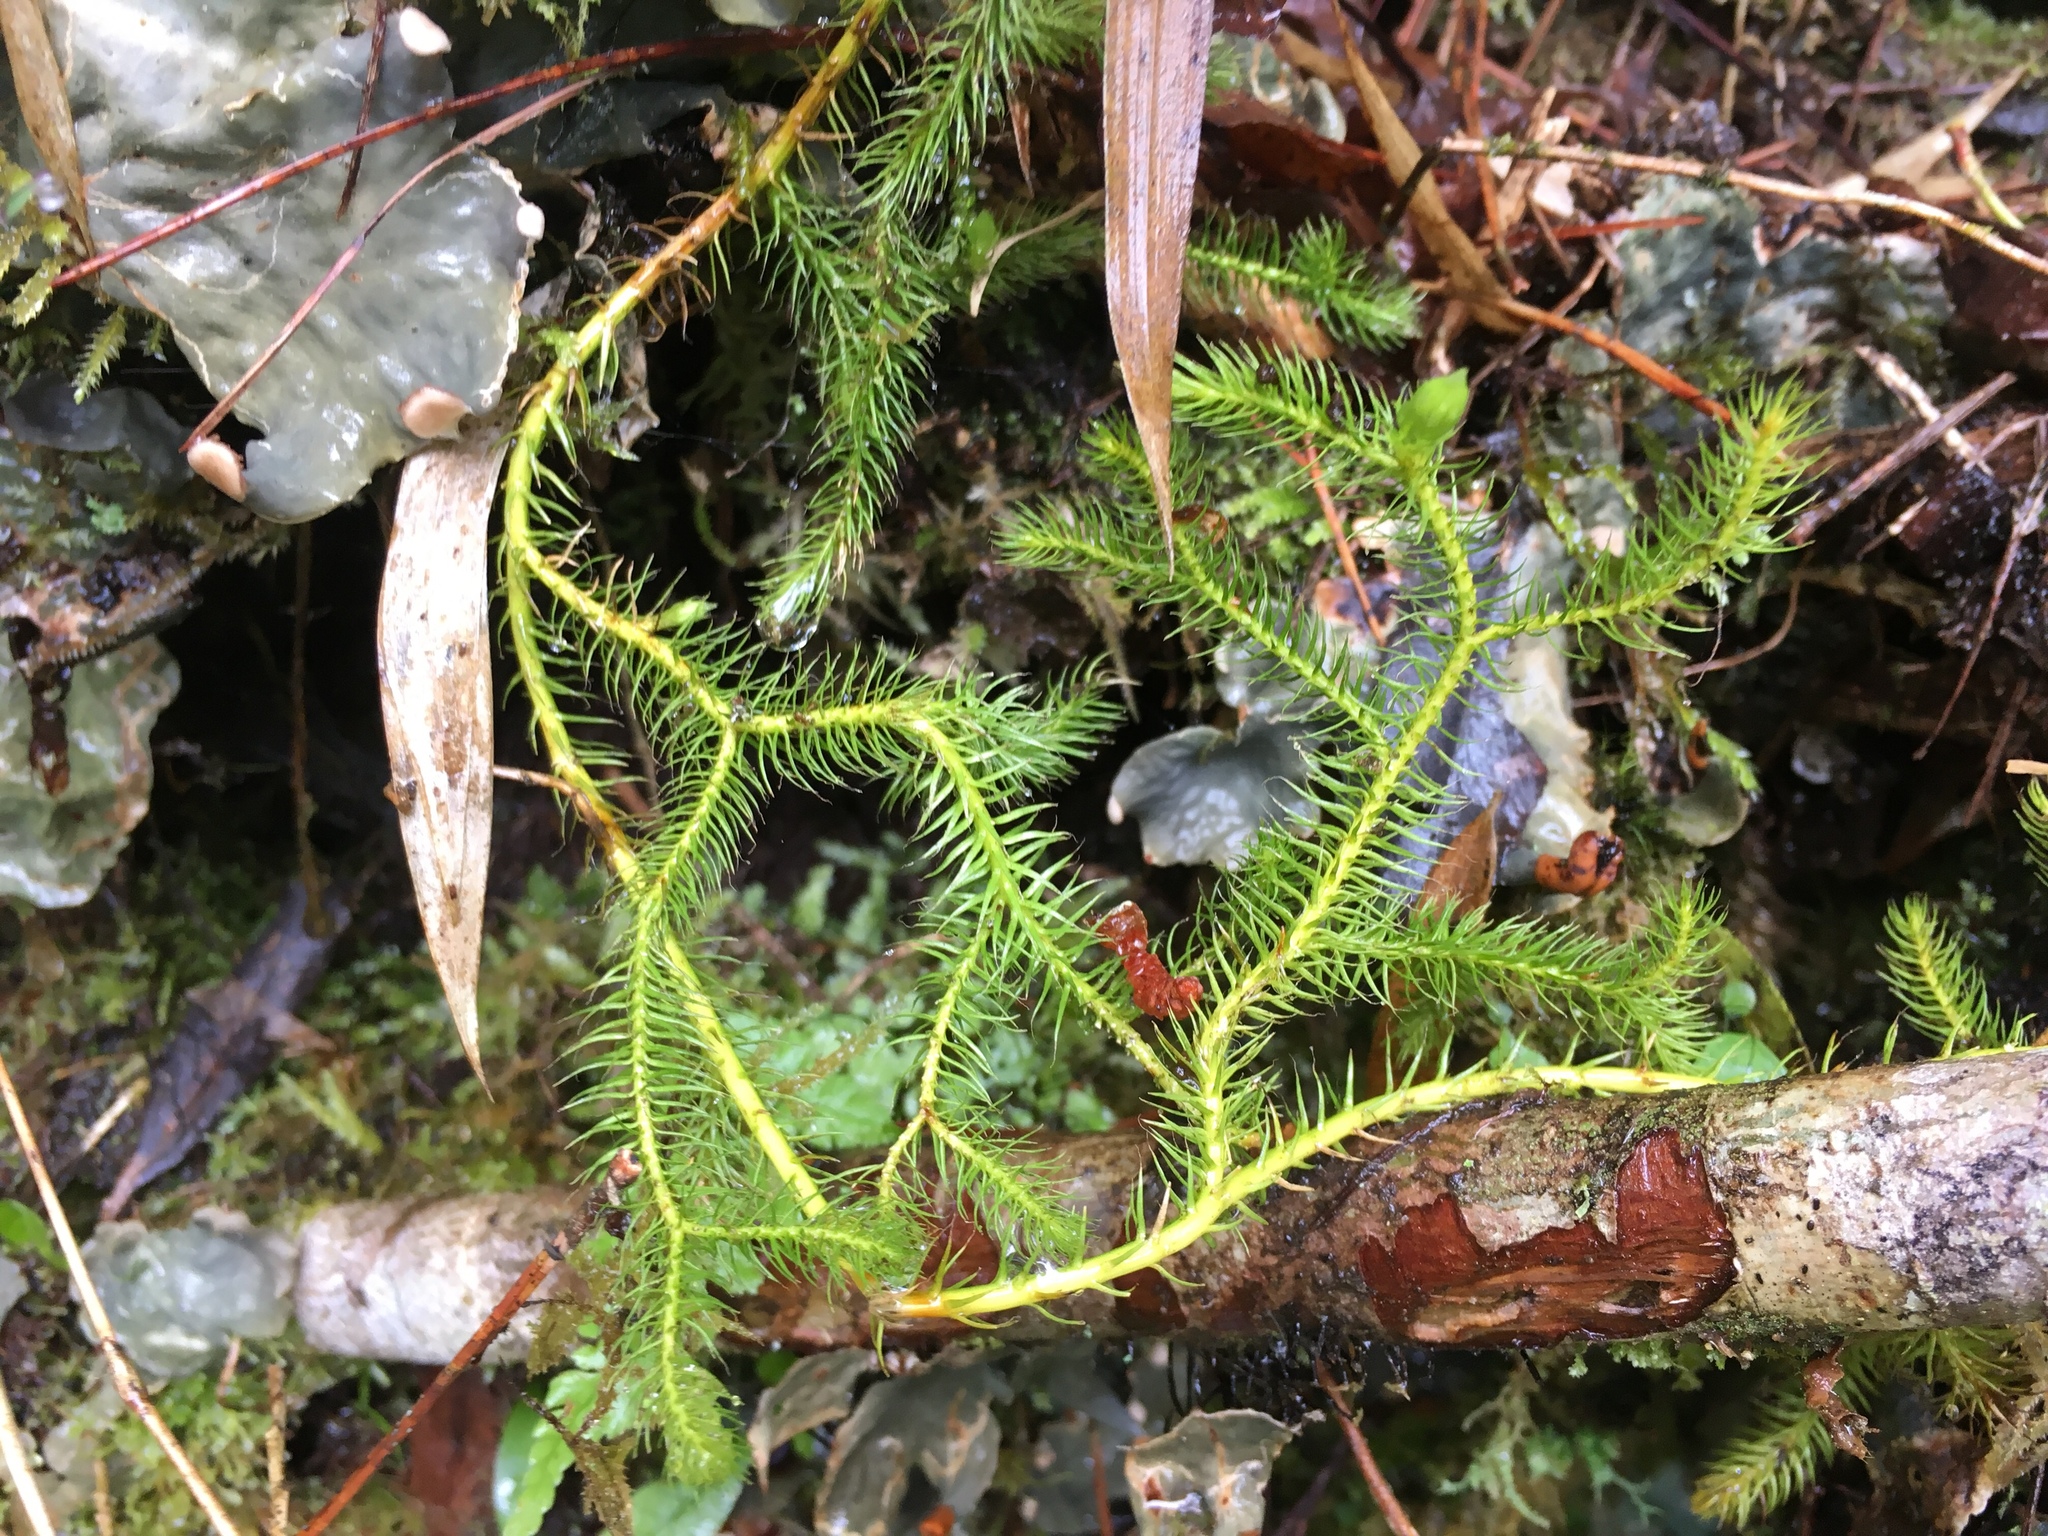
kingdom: Plantae
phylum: Tracheophyta
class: Lycopodiopsida
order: Lycopodiales
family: Lycopodiaceae
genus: Lycopodium
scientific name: Lycopodium clavatum
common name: Stag's-horn clubmoss
